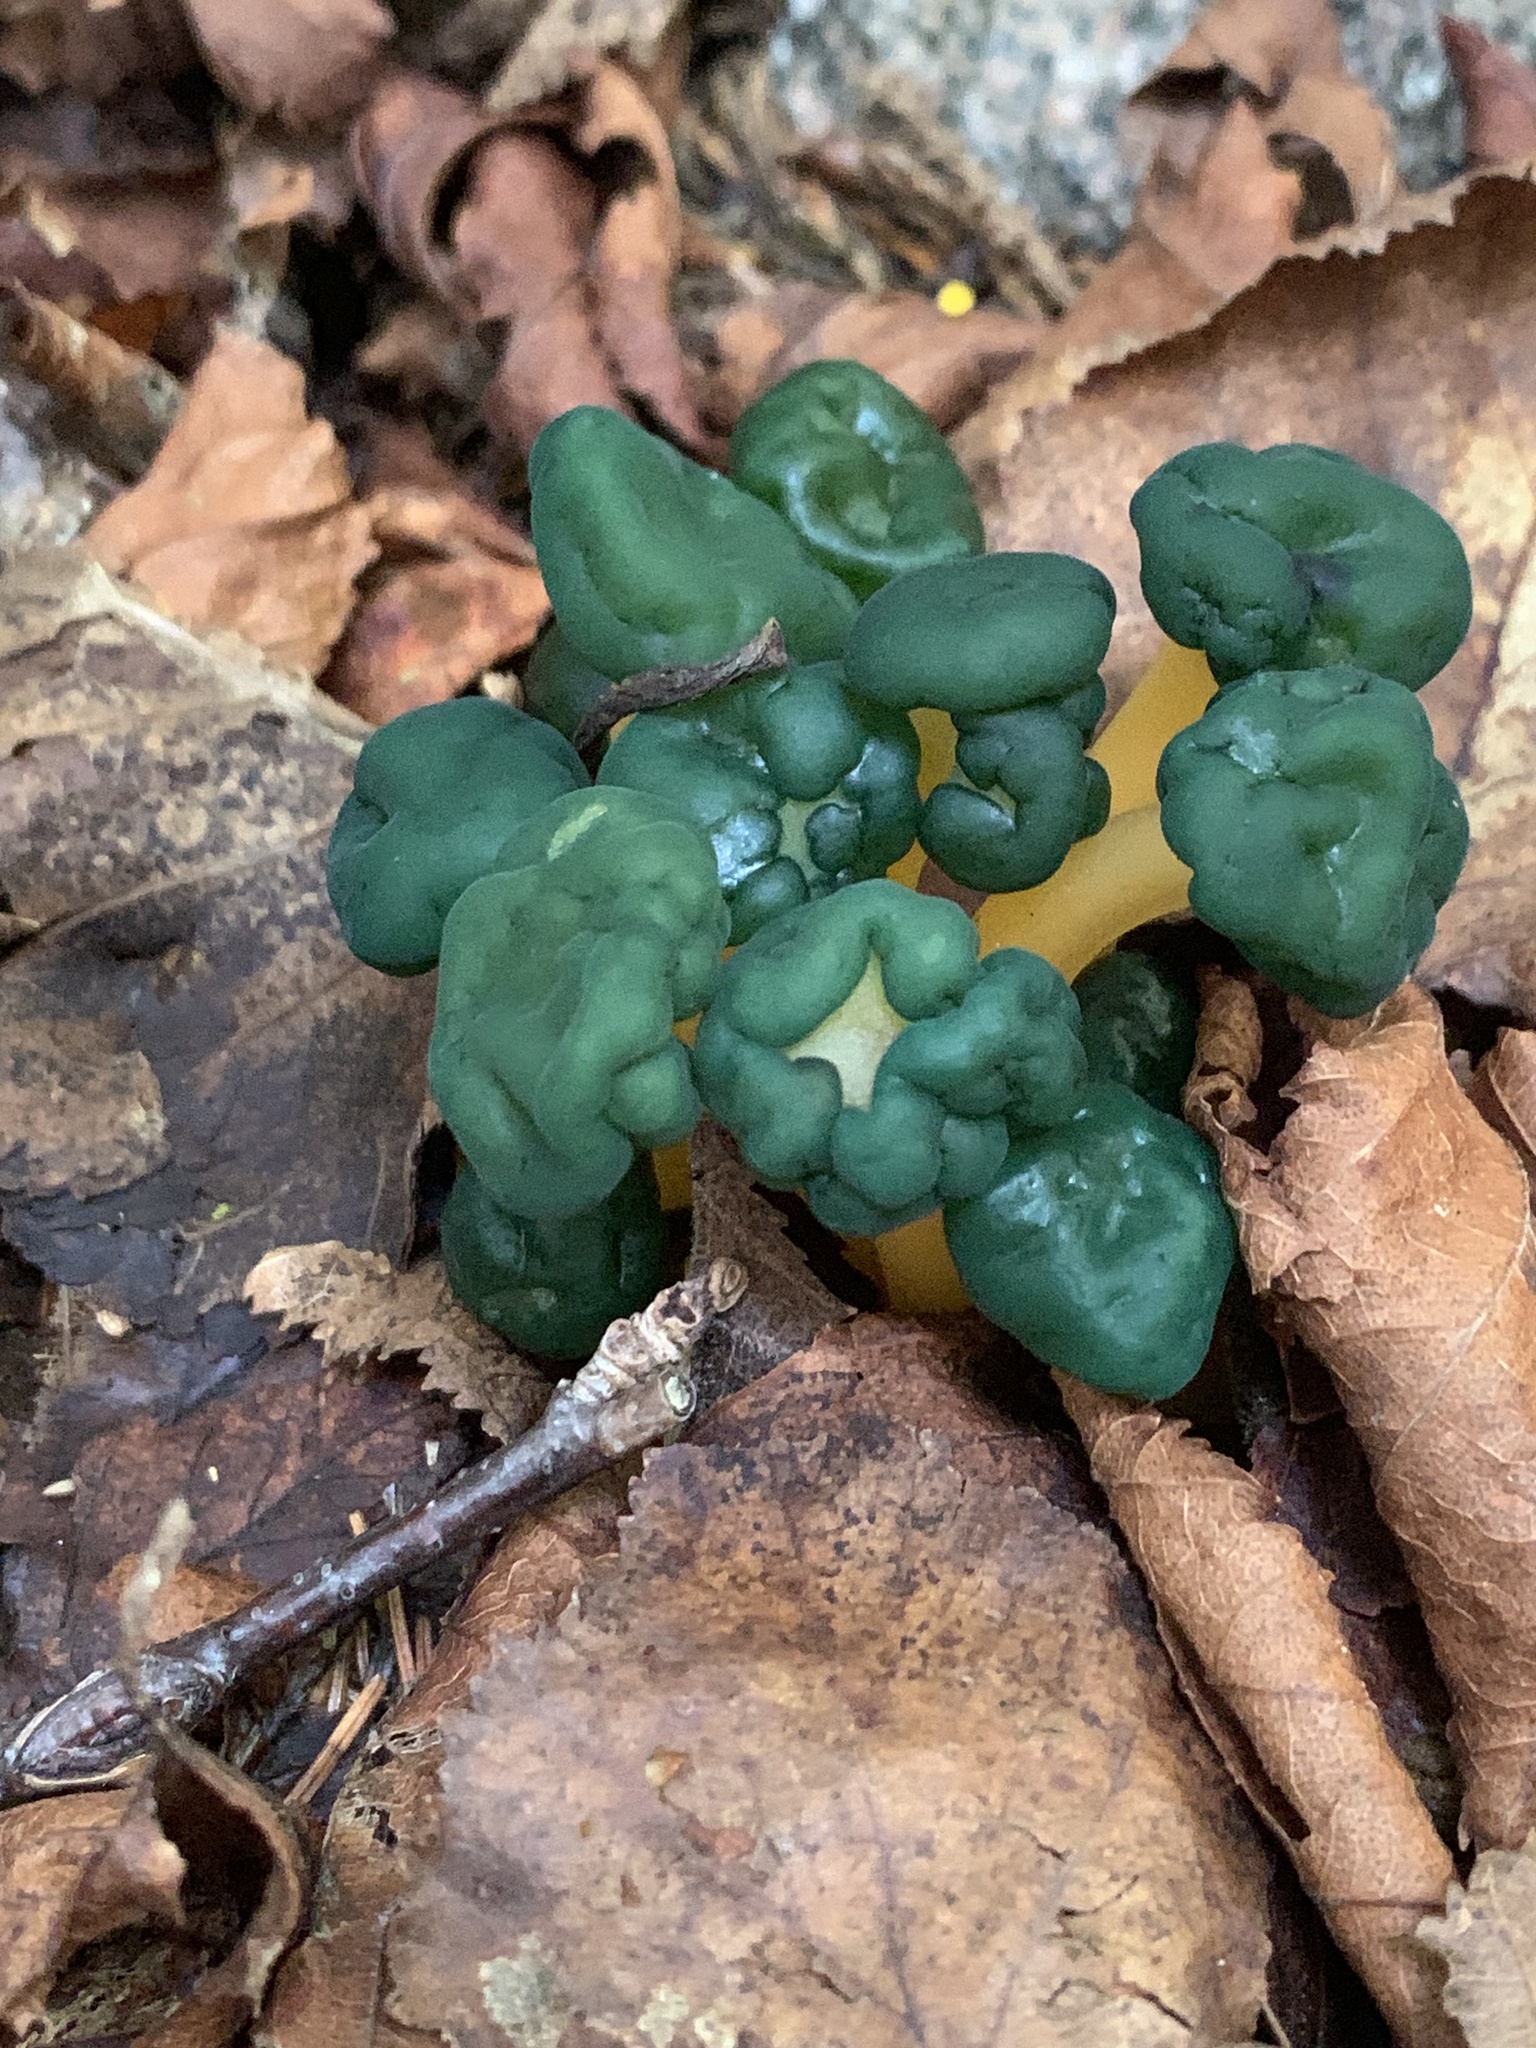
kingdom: Fungi
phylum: Ascomycota
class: Leotiomycetes
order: Leotiales
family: Leotiaceae
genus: Leotia
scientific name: Leotia lubrica
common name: Jellybaby
